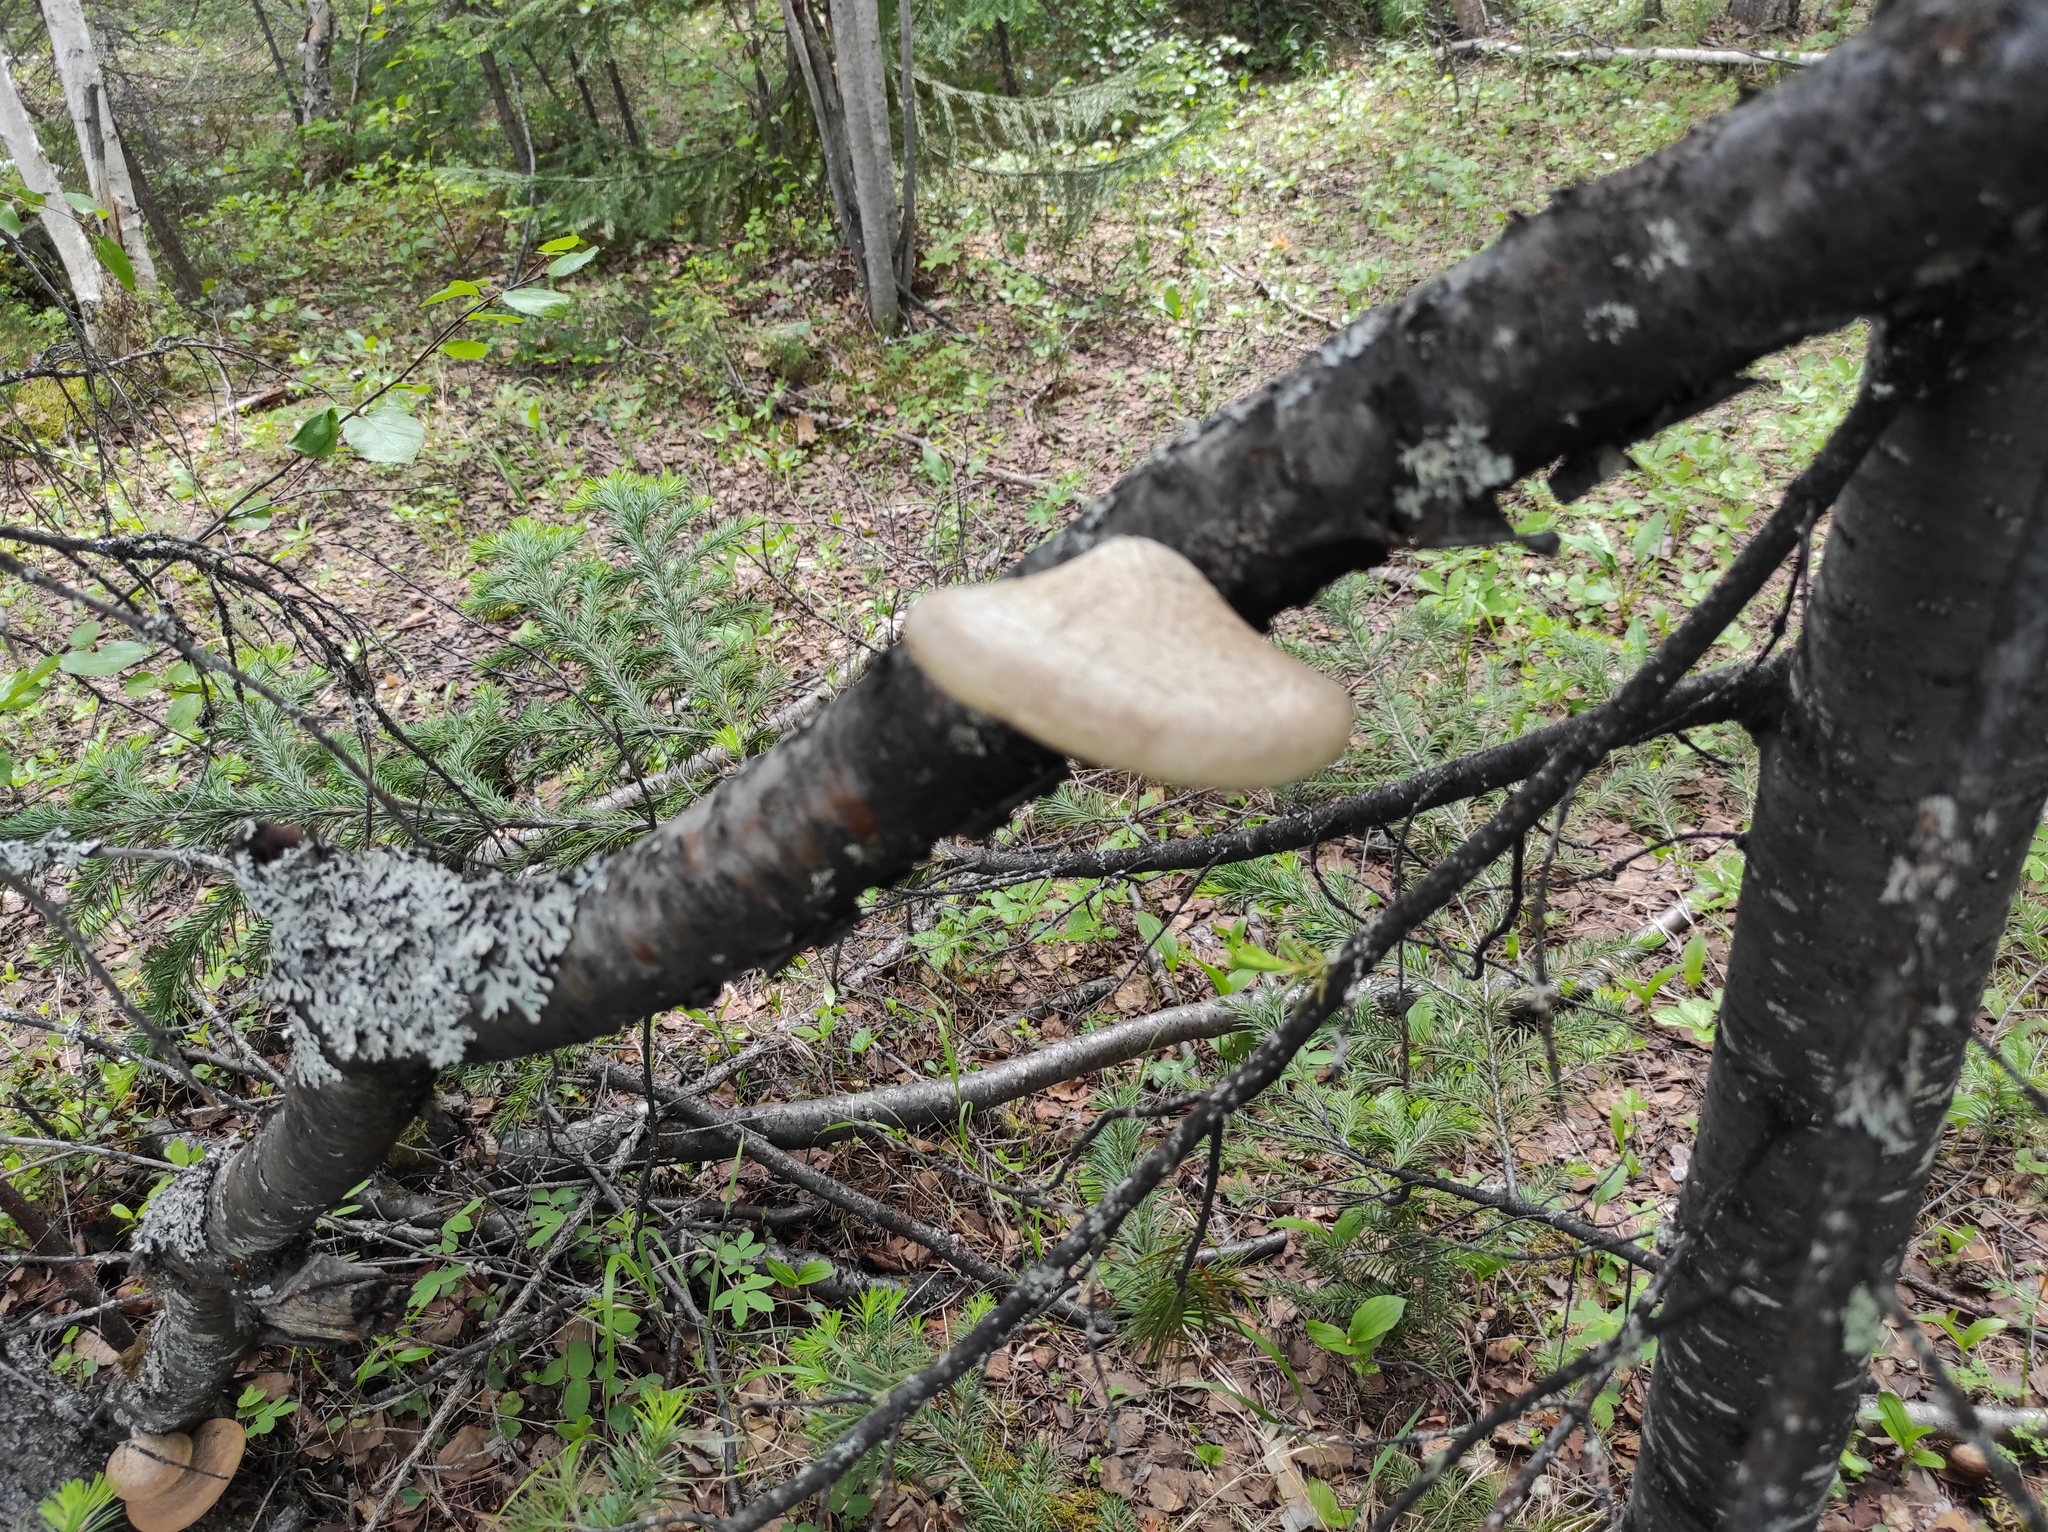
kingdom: Fungi
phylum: Basidiomycota
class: Agaricomycetes
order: Polyporales
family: Fomitopsidaceae
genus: Fomitopsis
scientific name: Fomitopsis betulina
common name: Birch polypore
